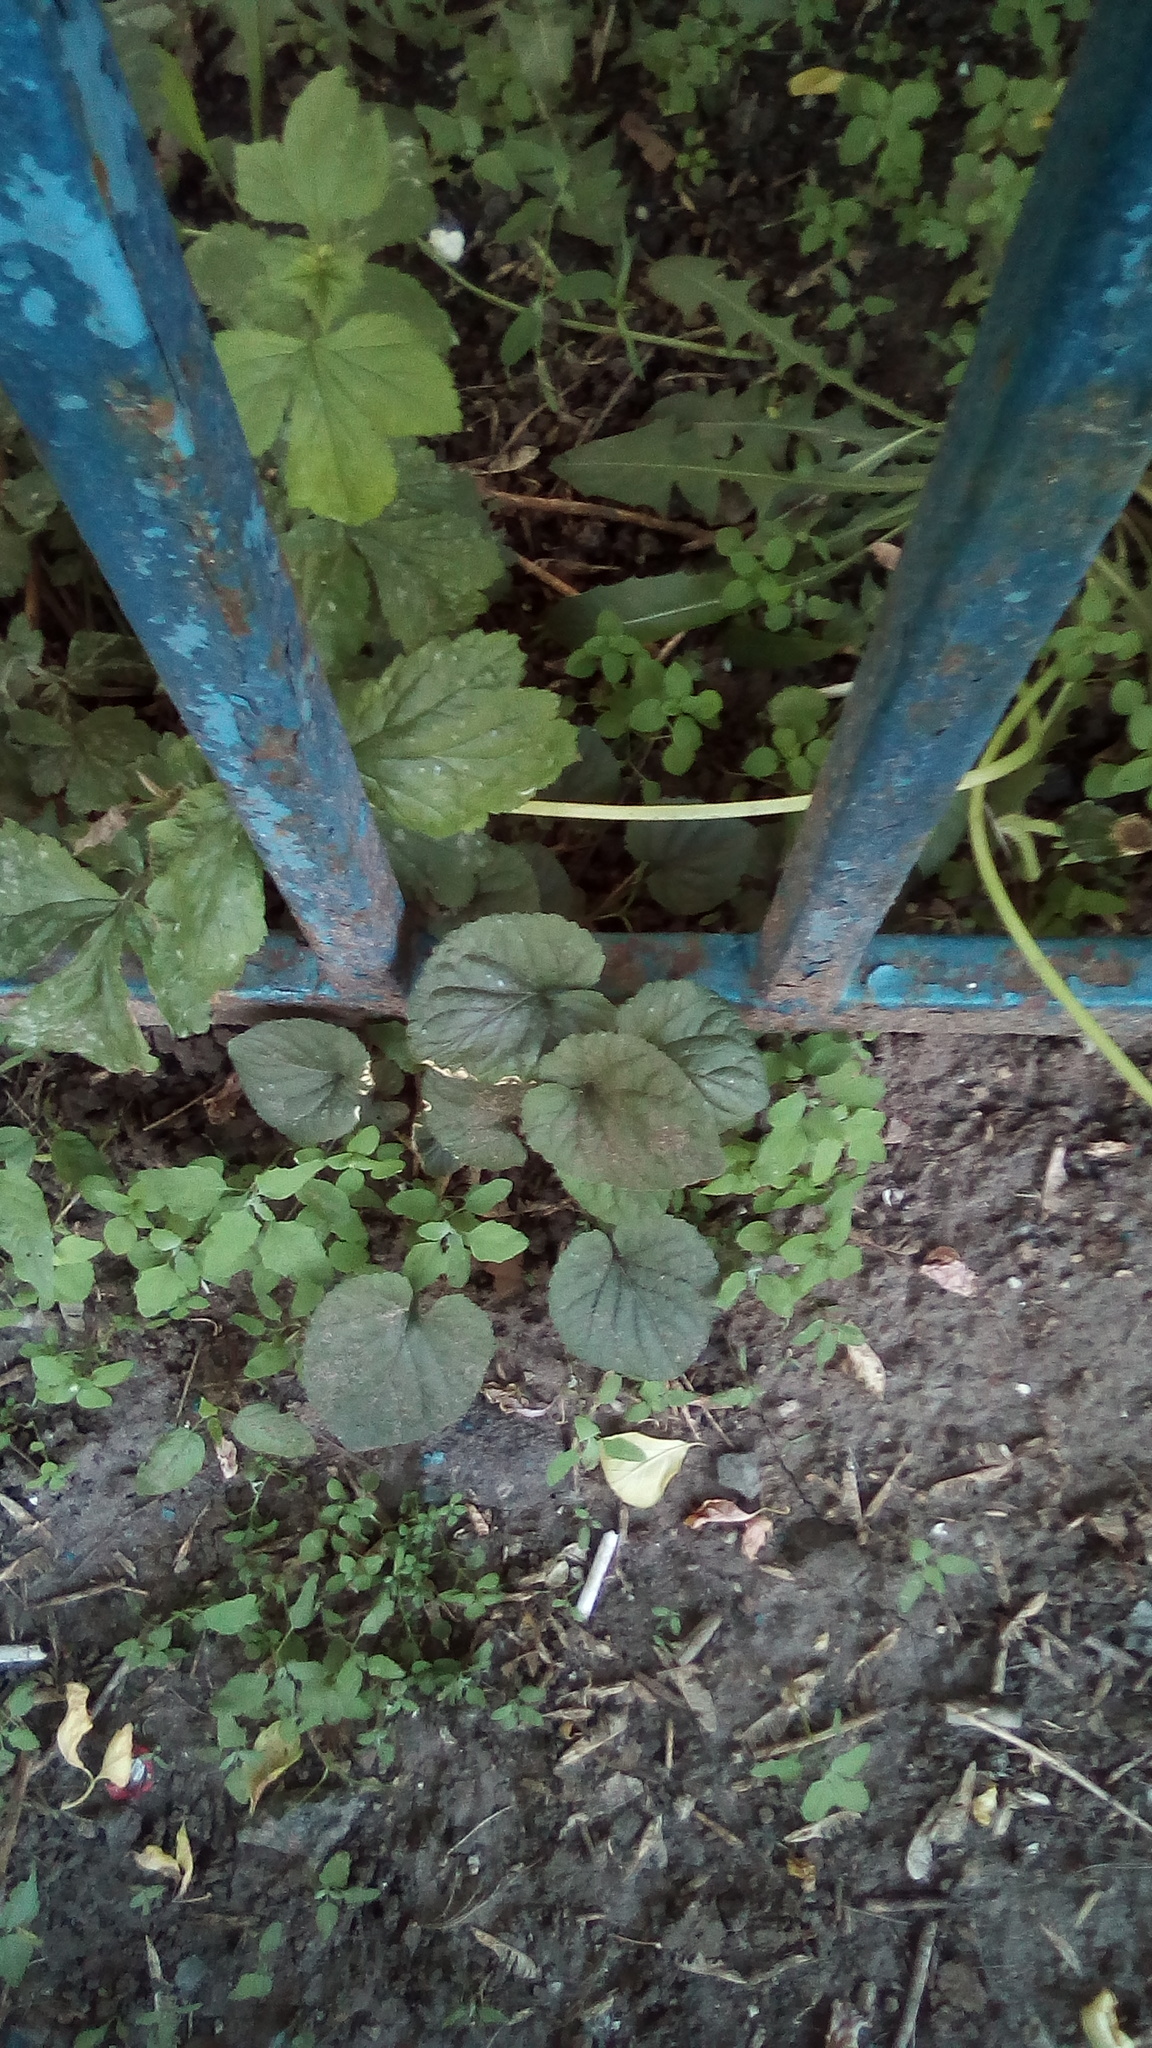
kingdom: Plantae
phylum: Tracheophyta
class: Magnoliopsida
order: Malpighiales
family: Violaceae
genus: Viola
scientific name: Viola odorata
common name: Sweet violet
